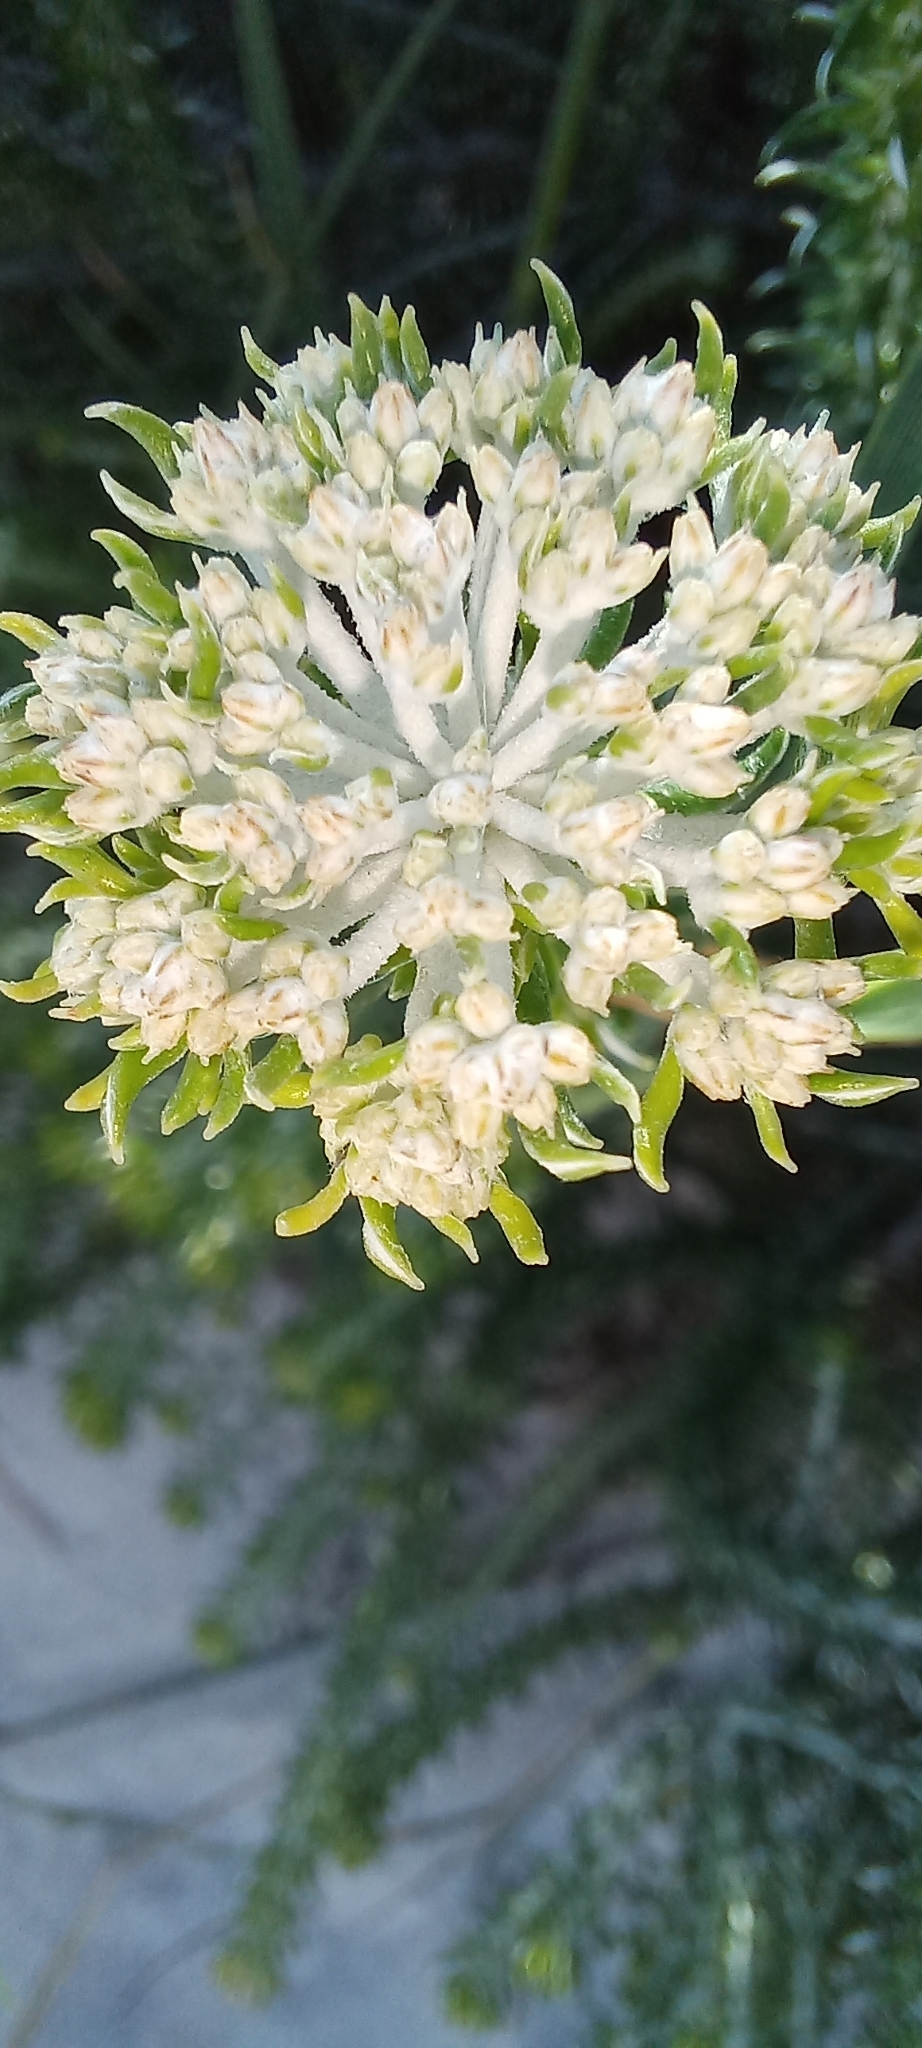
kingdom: Plantae
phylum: Tracheophyta
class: Magnoliopsida
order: Asterales
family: Asteraceae
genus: Metalasia
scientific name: Metalasia muricata
